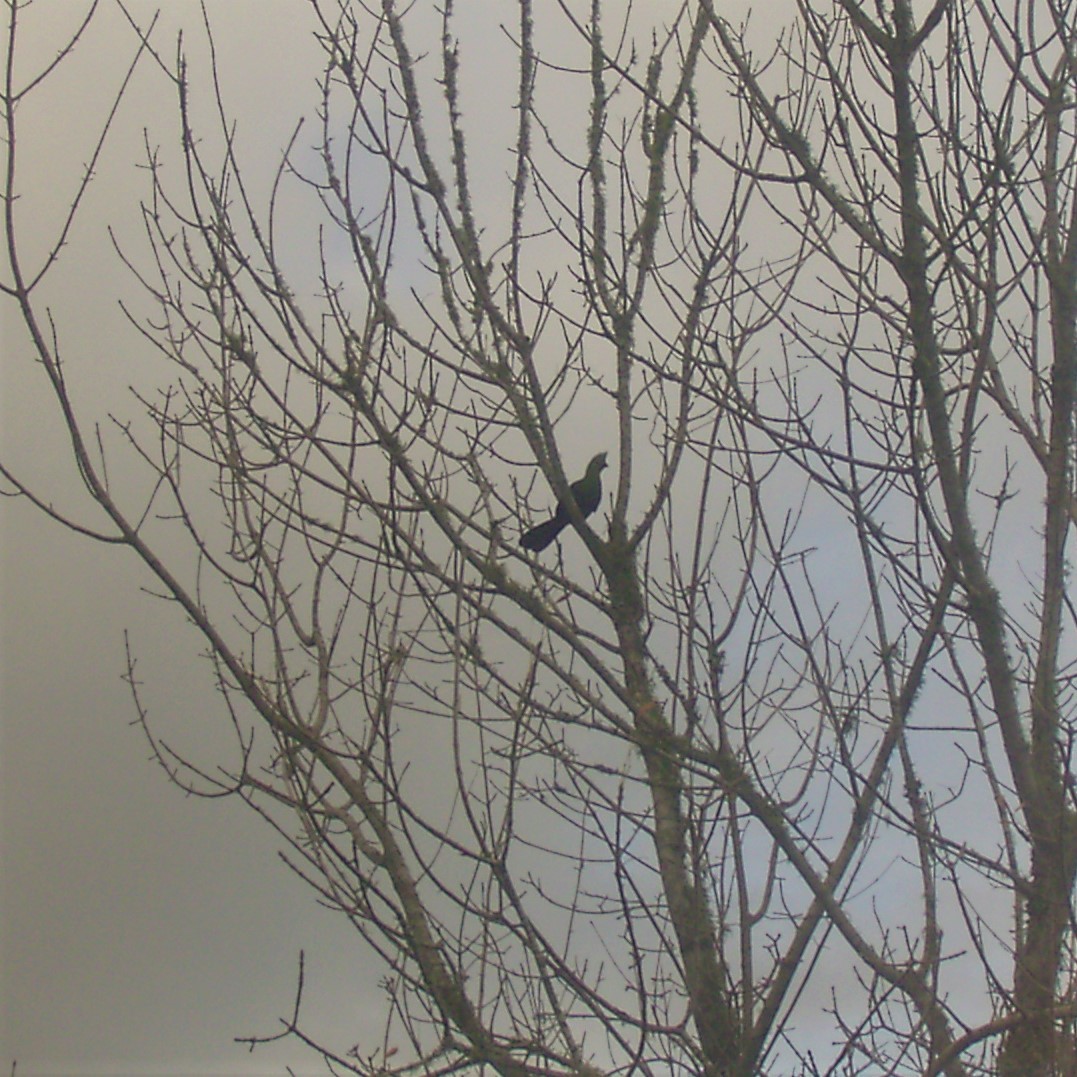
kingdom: Animalia
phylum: Chordata
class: Aves
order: Musophagiformes
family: Musophagidae
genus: Tauraco
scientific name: Tauraco corythaix
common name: Knysna turaco
